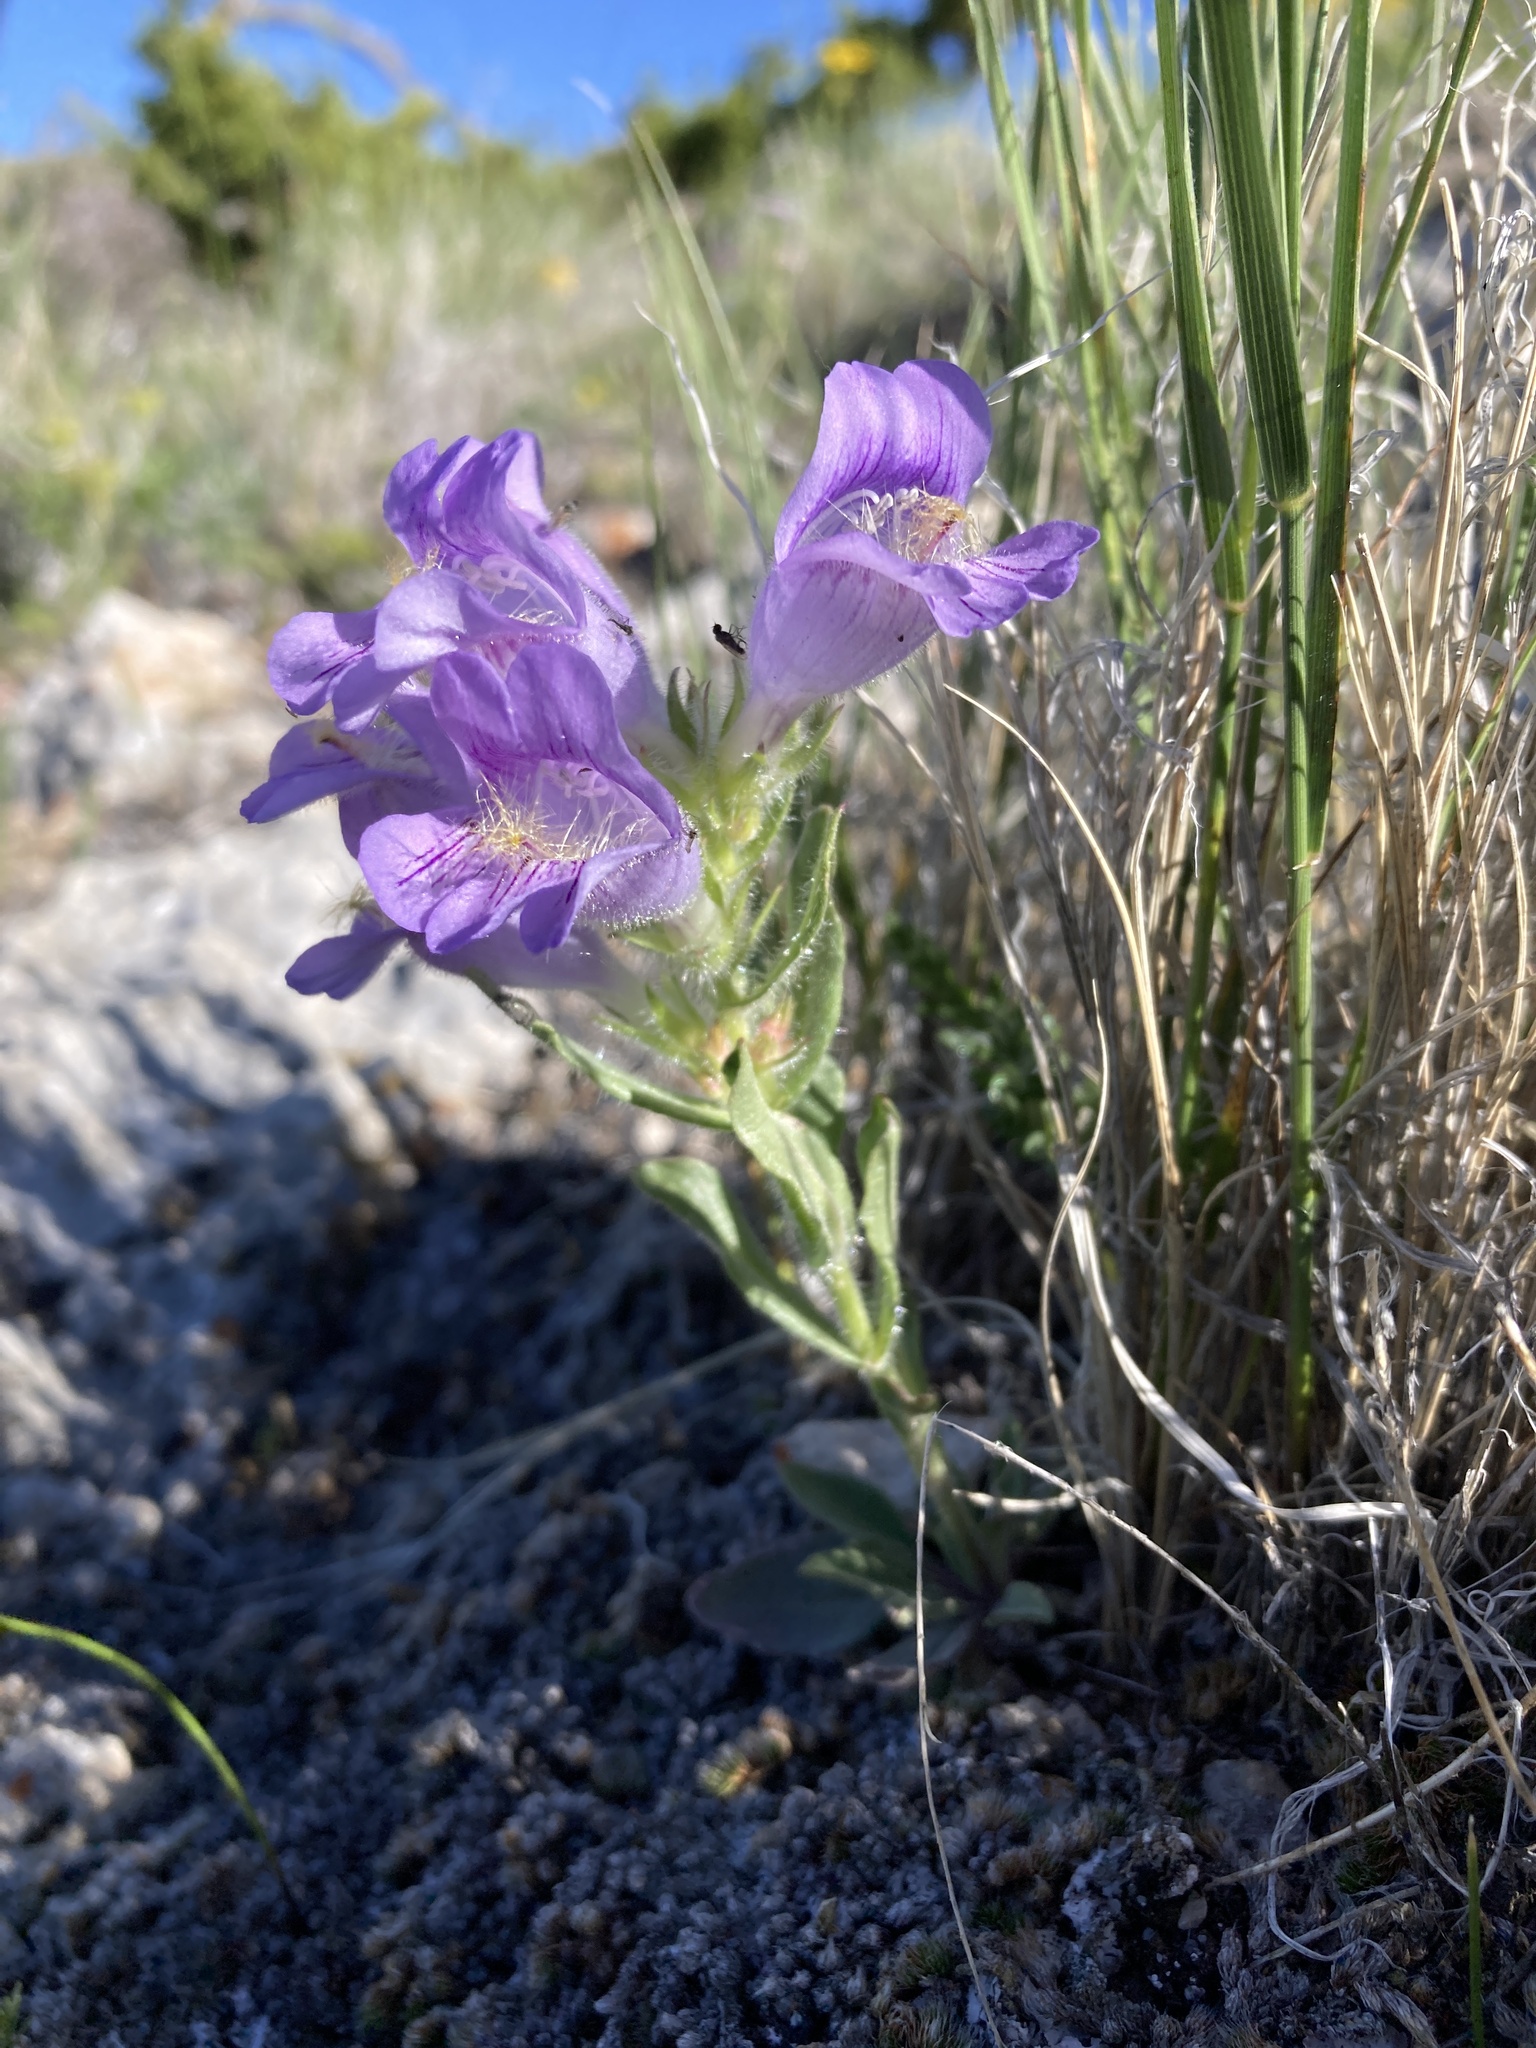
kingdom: Plantae
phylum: Tracheophyta
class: Magnoliopsida
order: Lamiales
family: Plantaginaceae
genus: Penstemon
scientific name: Penstemon eriantherus
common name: Crested beardtongue
